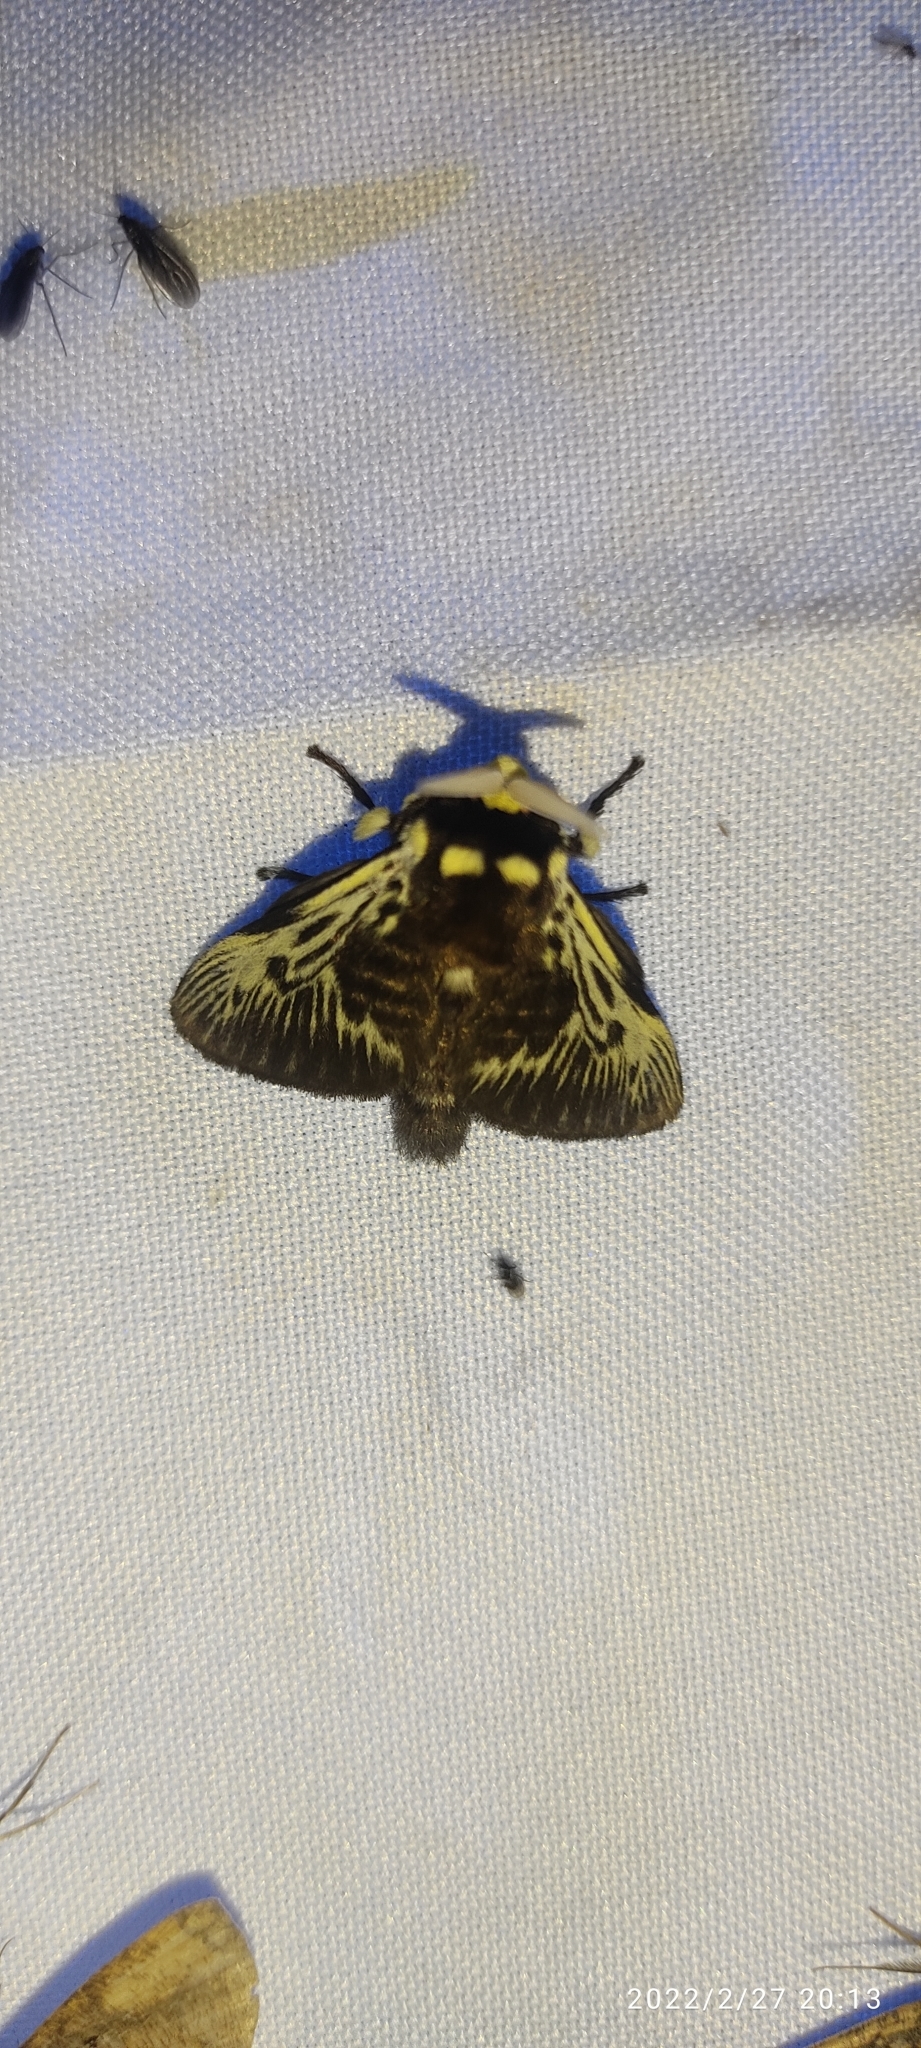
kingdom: Animalia
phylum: Arthropoda
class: Insecta
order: Lepidoptera
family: Megalopygidae
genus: Megalopyge
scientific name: Megalopyge albicollis
